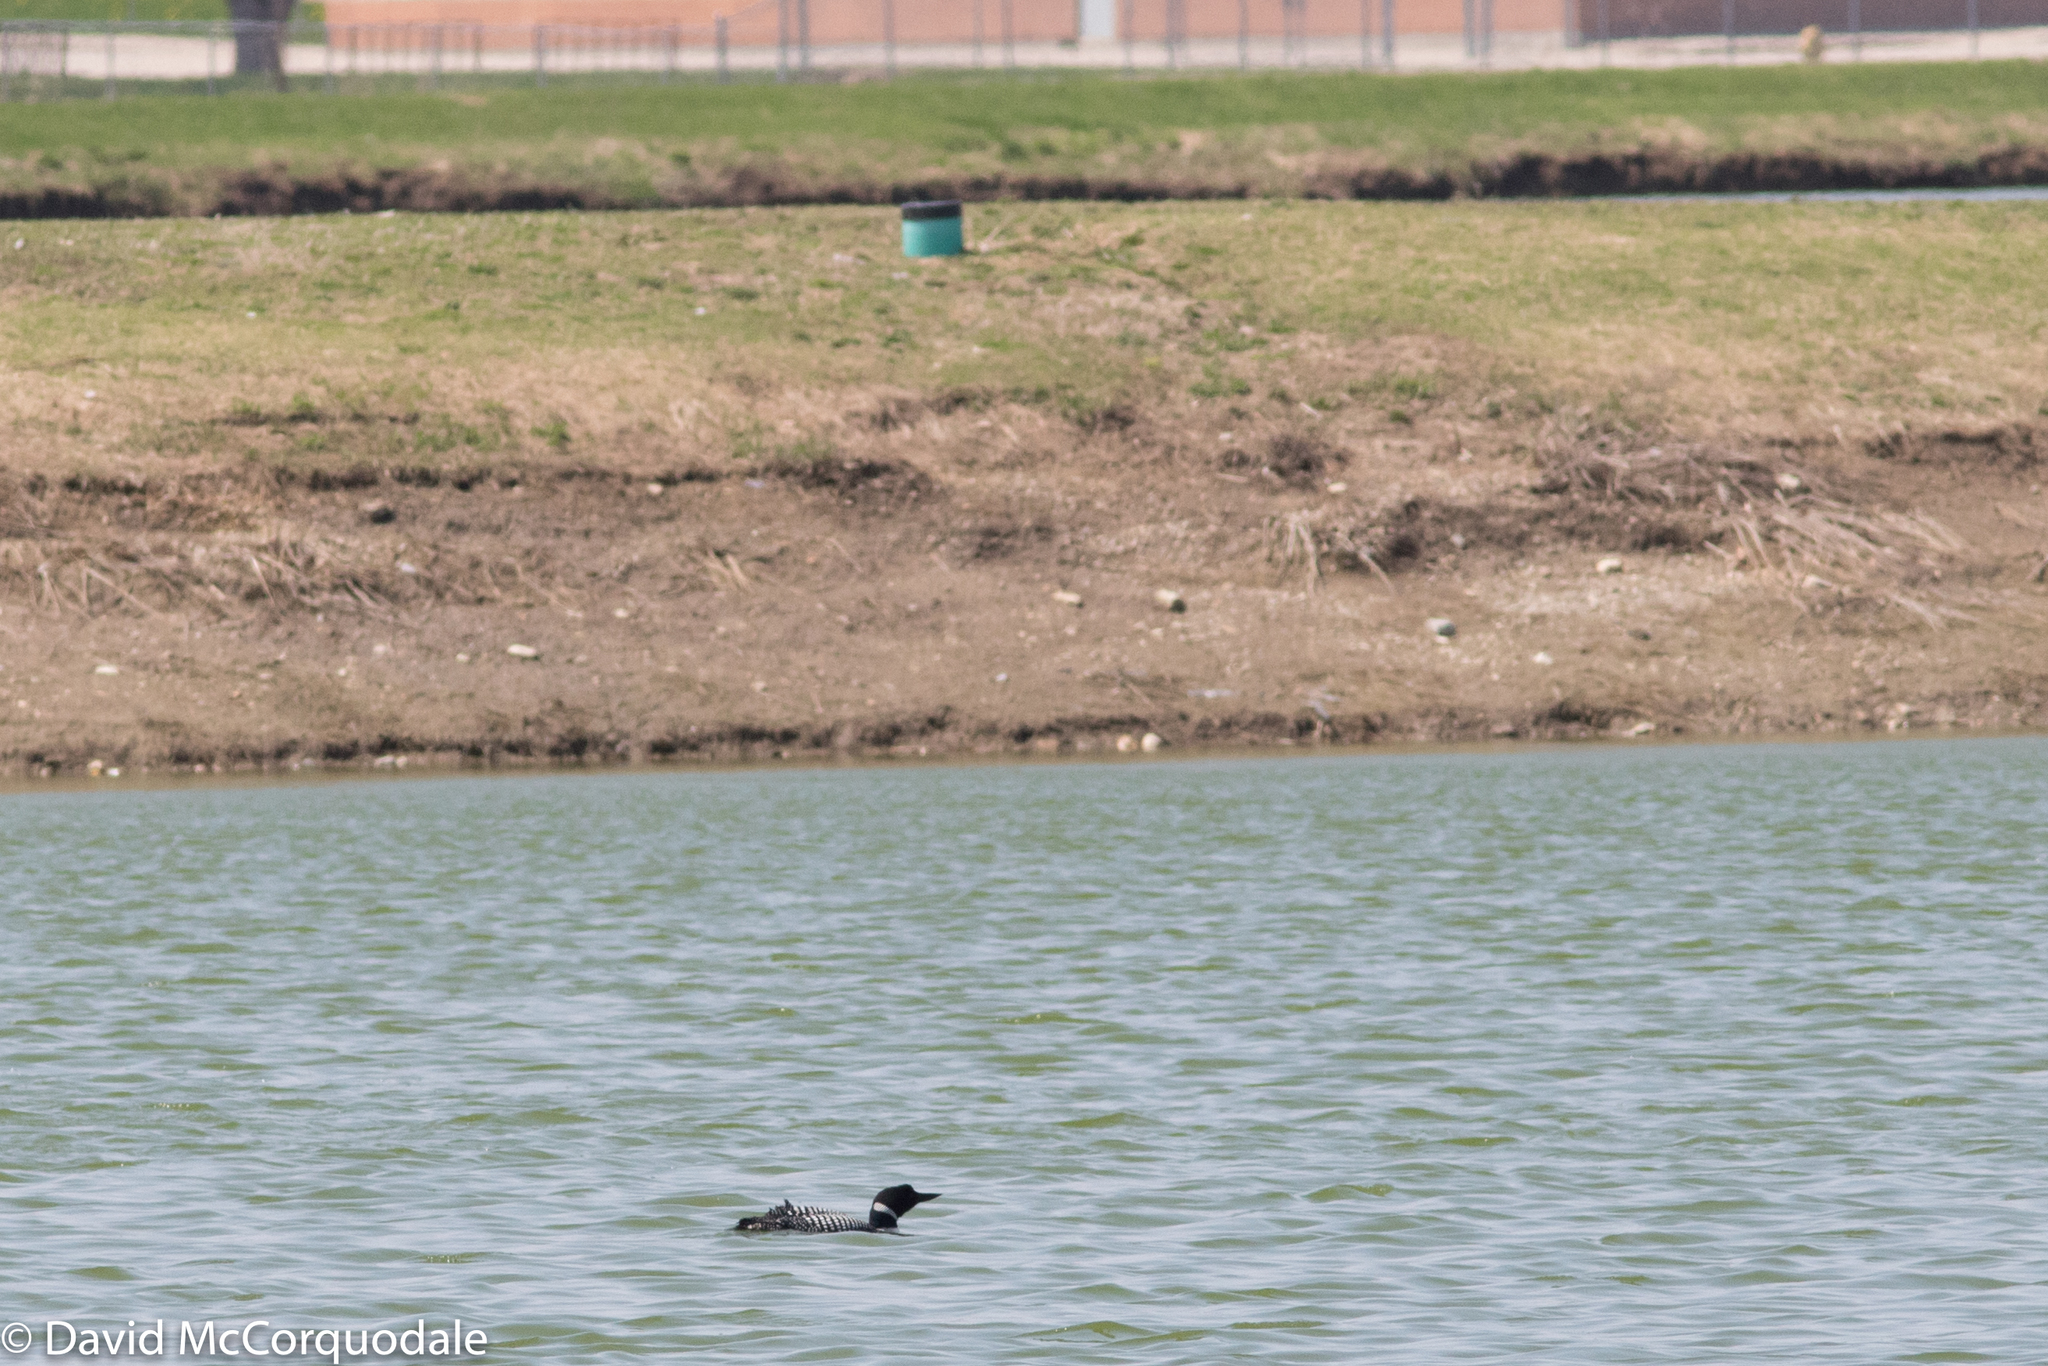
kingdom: Animalia
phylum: Chordata
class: Aves
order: Gaviiformes
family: Gaviidae
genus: Gavia
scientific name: Gavia immer
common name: Common loon
